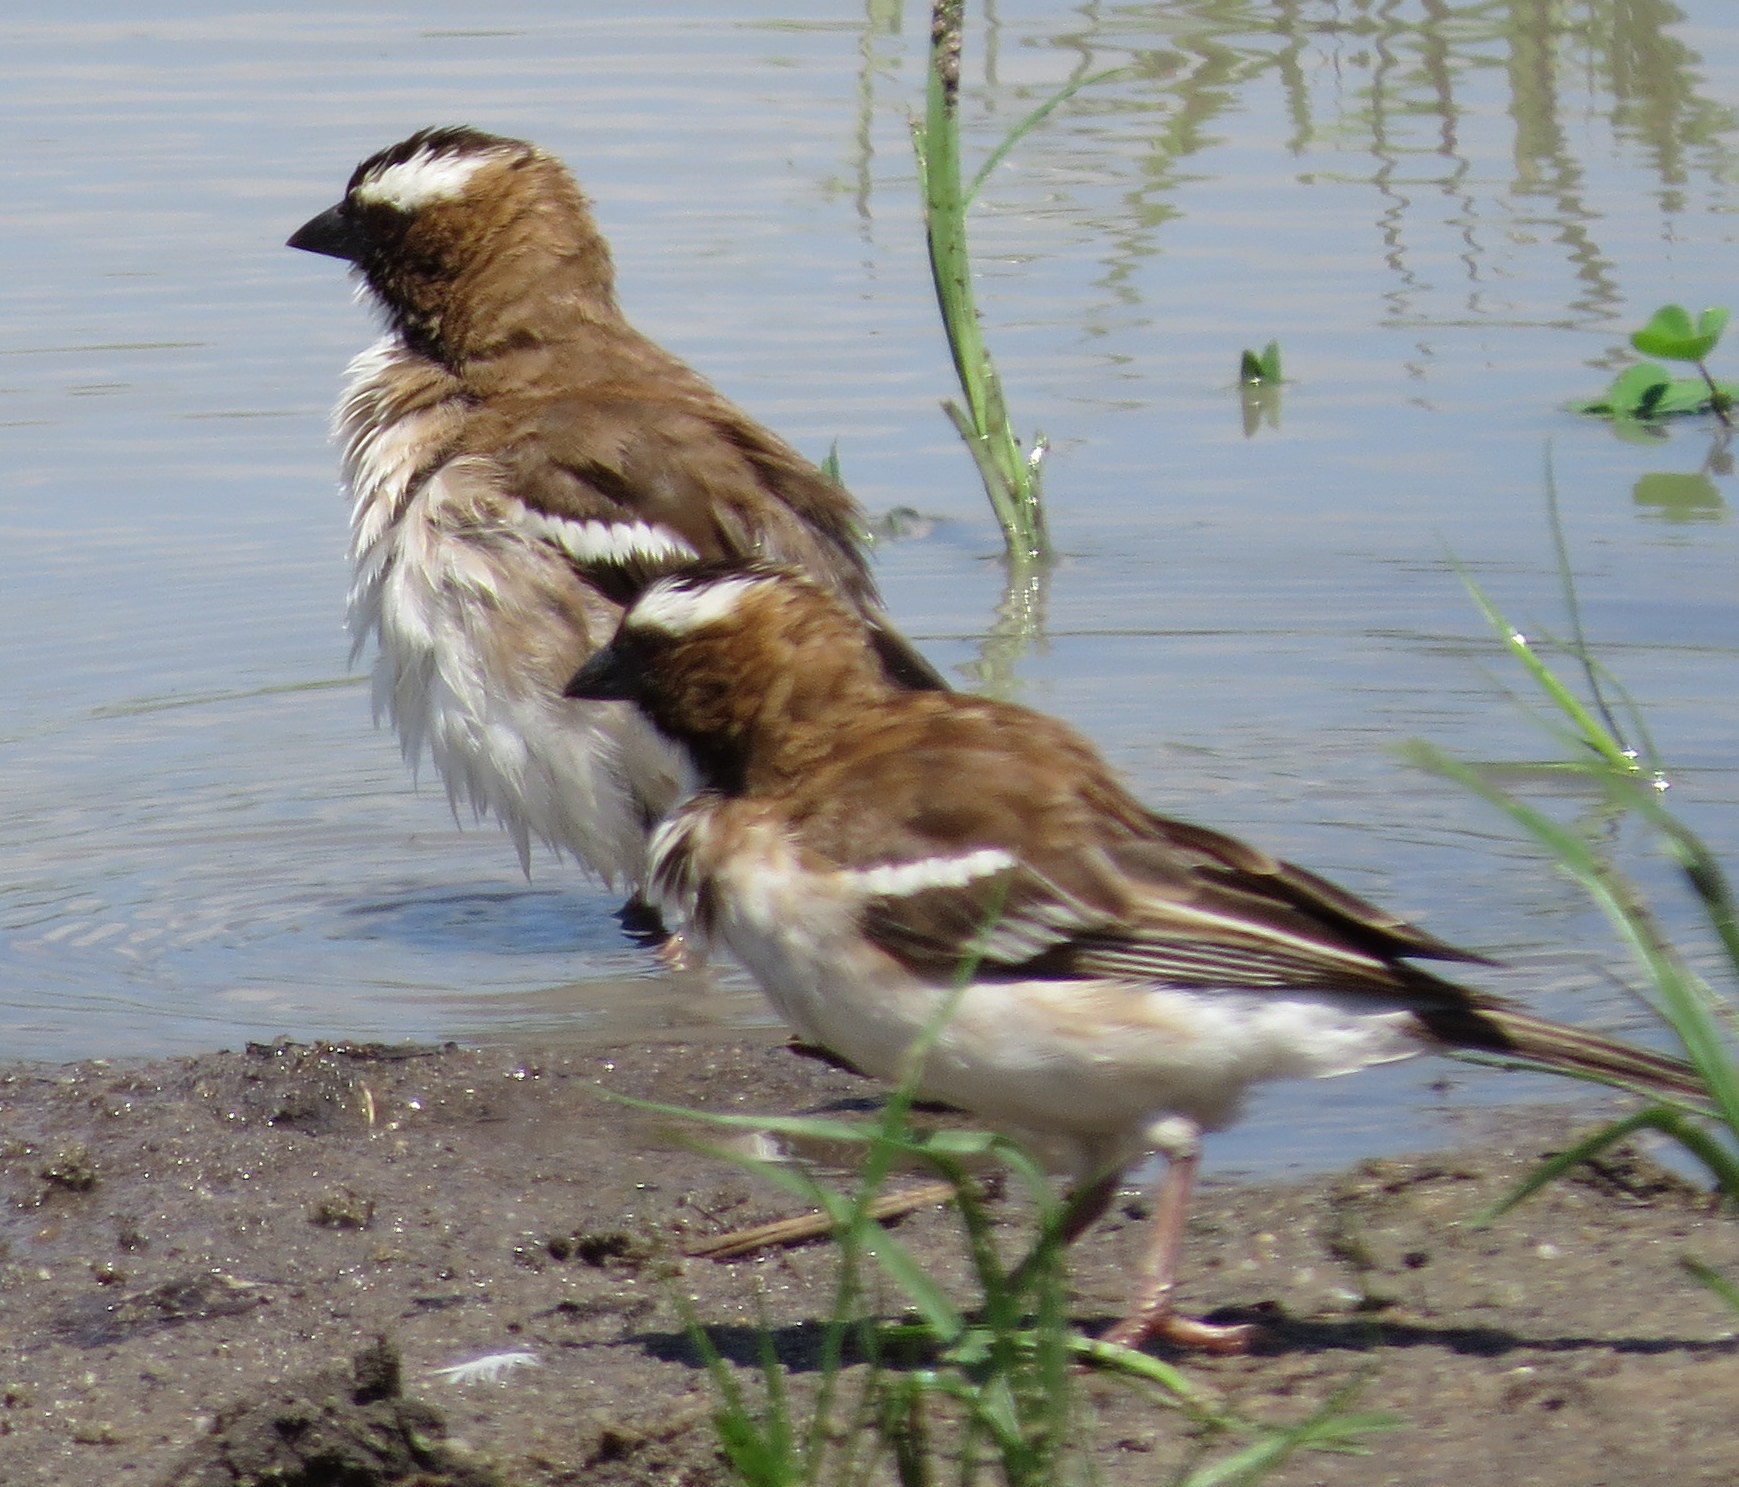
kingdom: Animalia
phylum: Chordata
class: Aves
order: Passeriformes
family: Passeridae
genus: Plocepasser
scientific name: Plocepasser mahali
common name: White-browed sparrow-weaver
